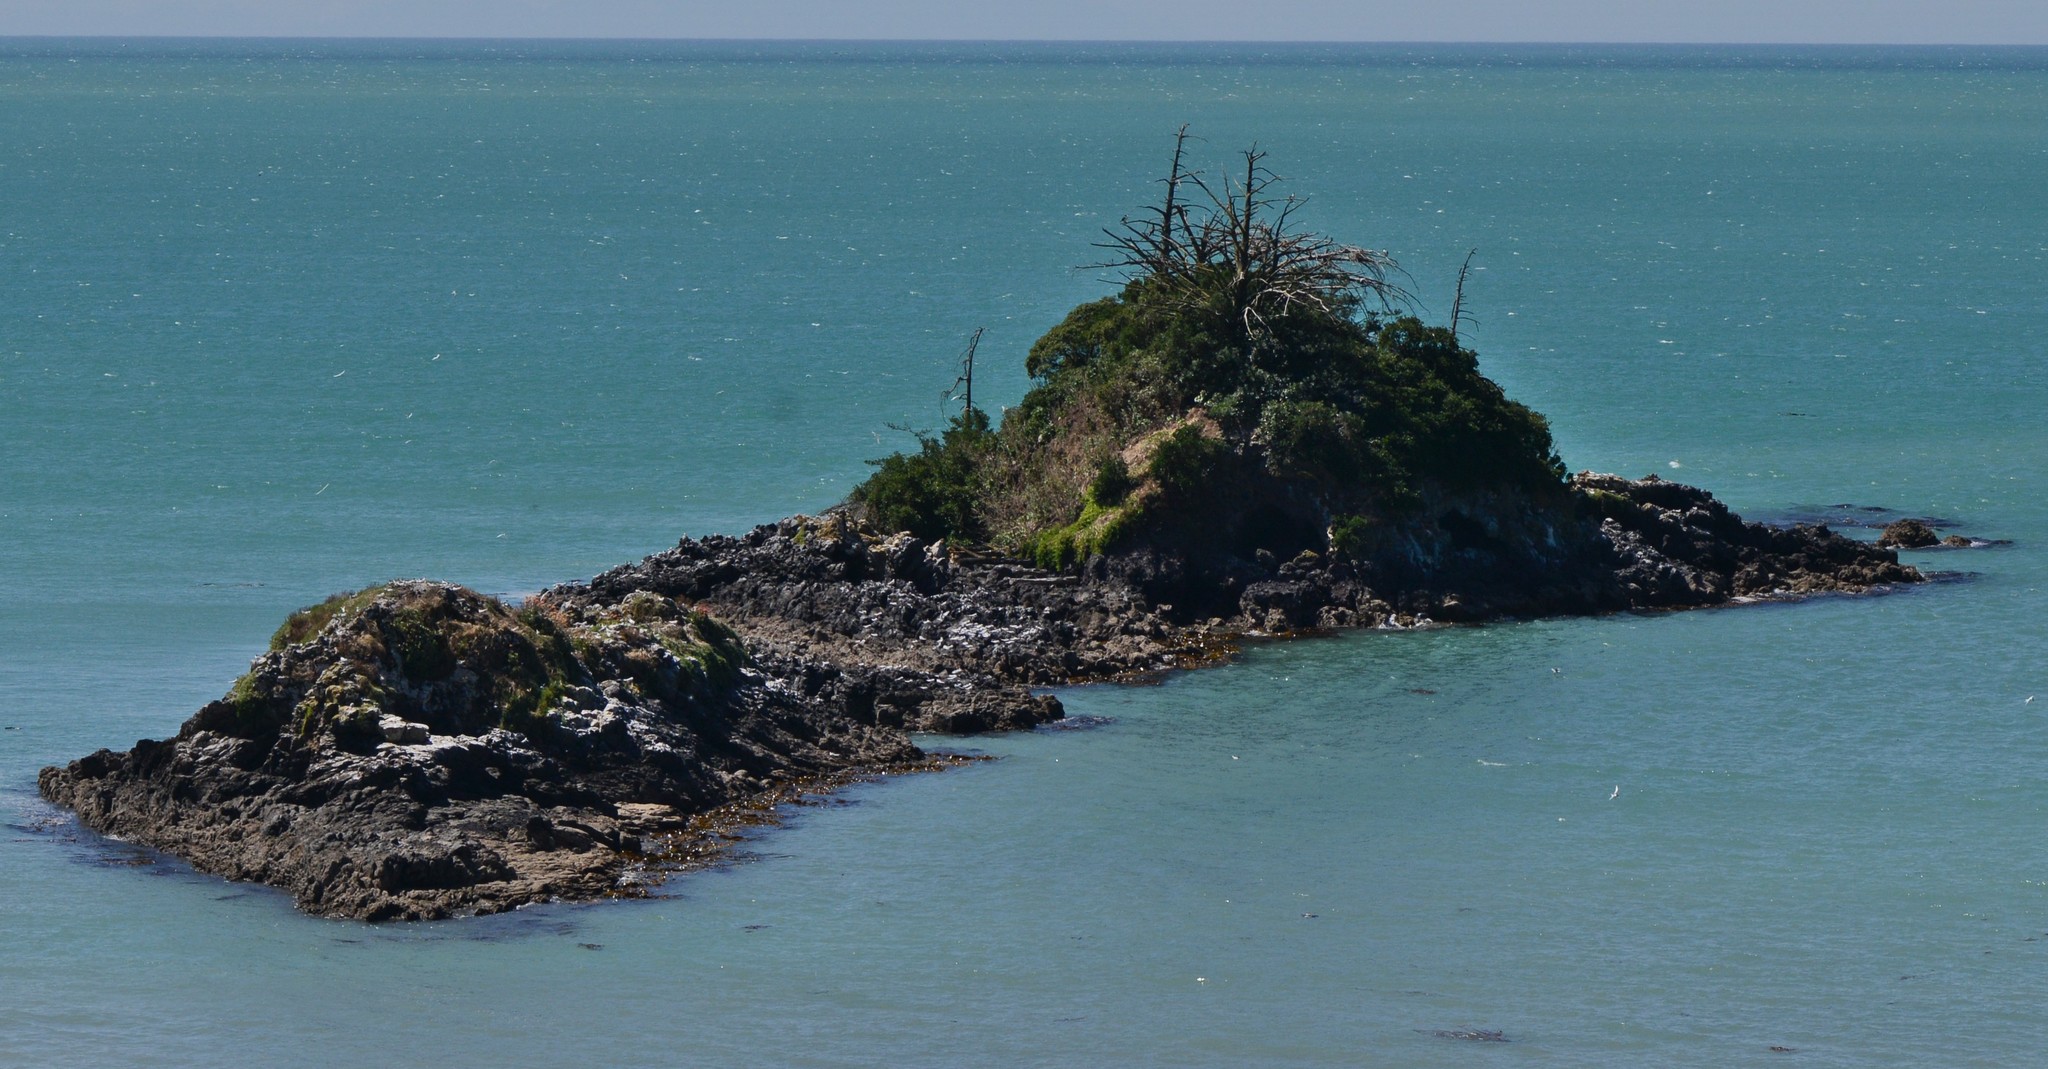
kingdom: Animalia
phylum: Chordata
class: Aves
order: Charadriiformes
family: Laridae
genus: Sterna
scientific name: Sterna striata
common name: White-fronted tern
